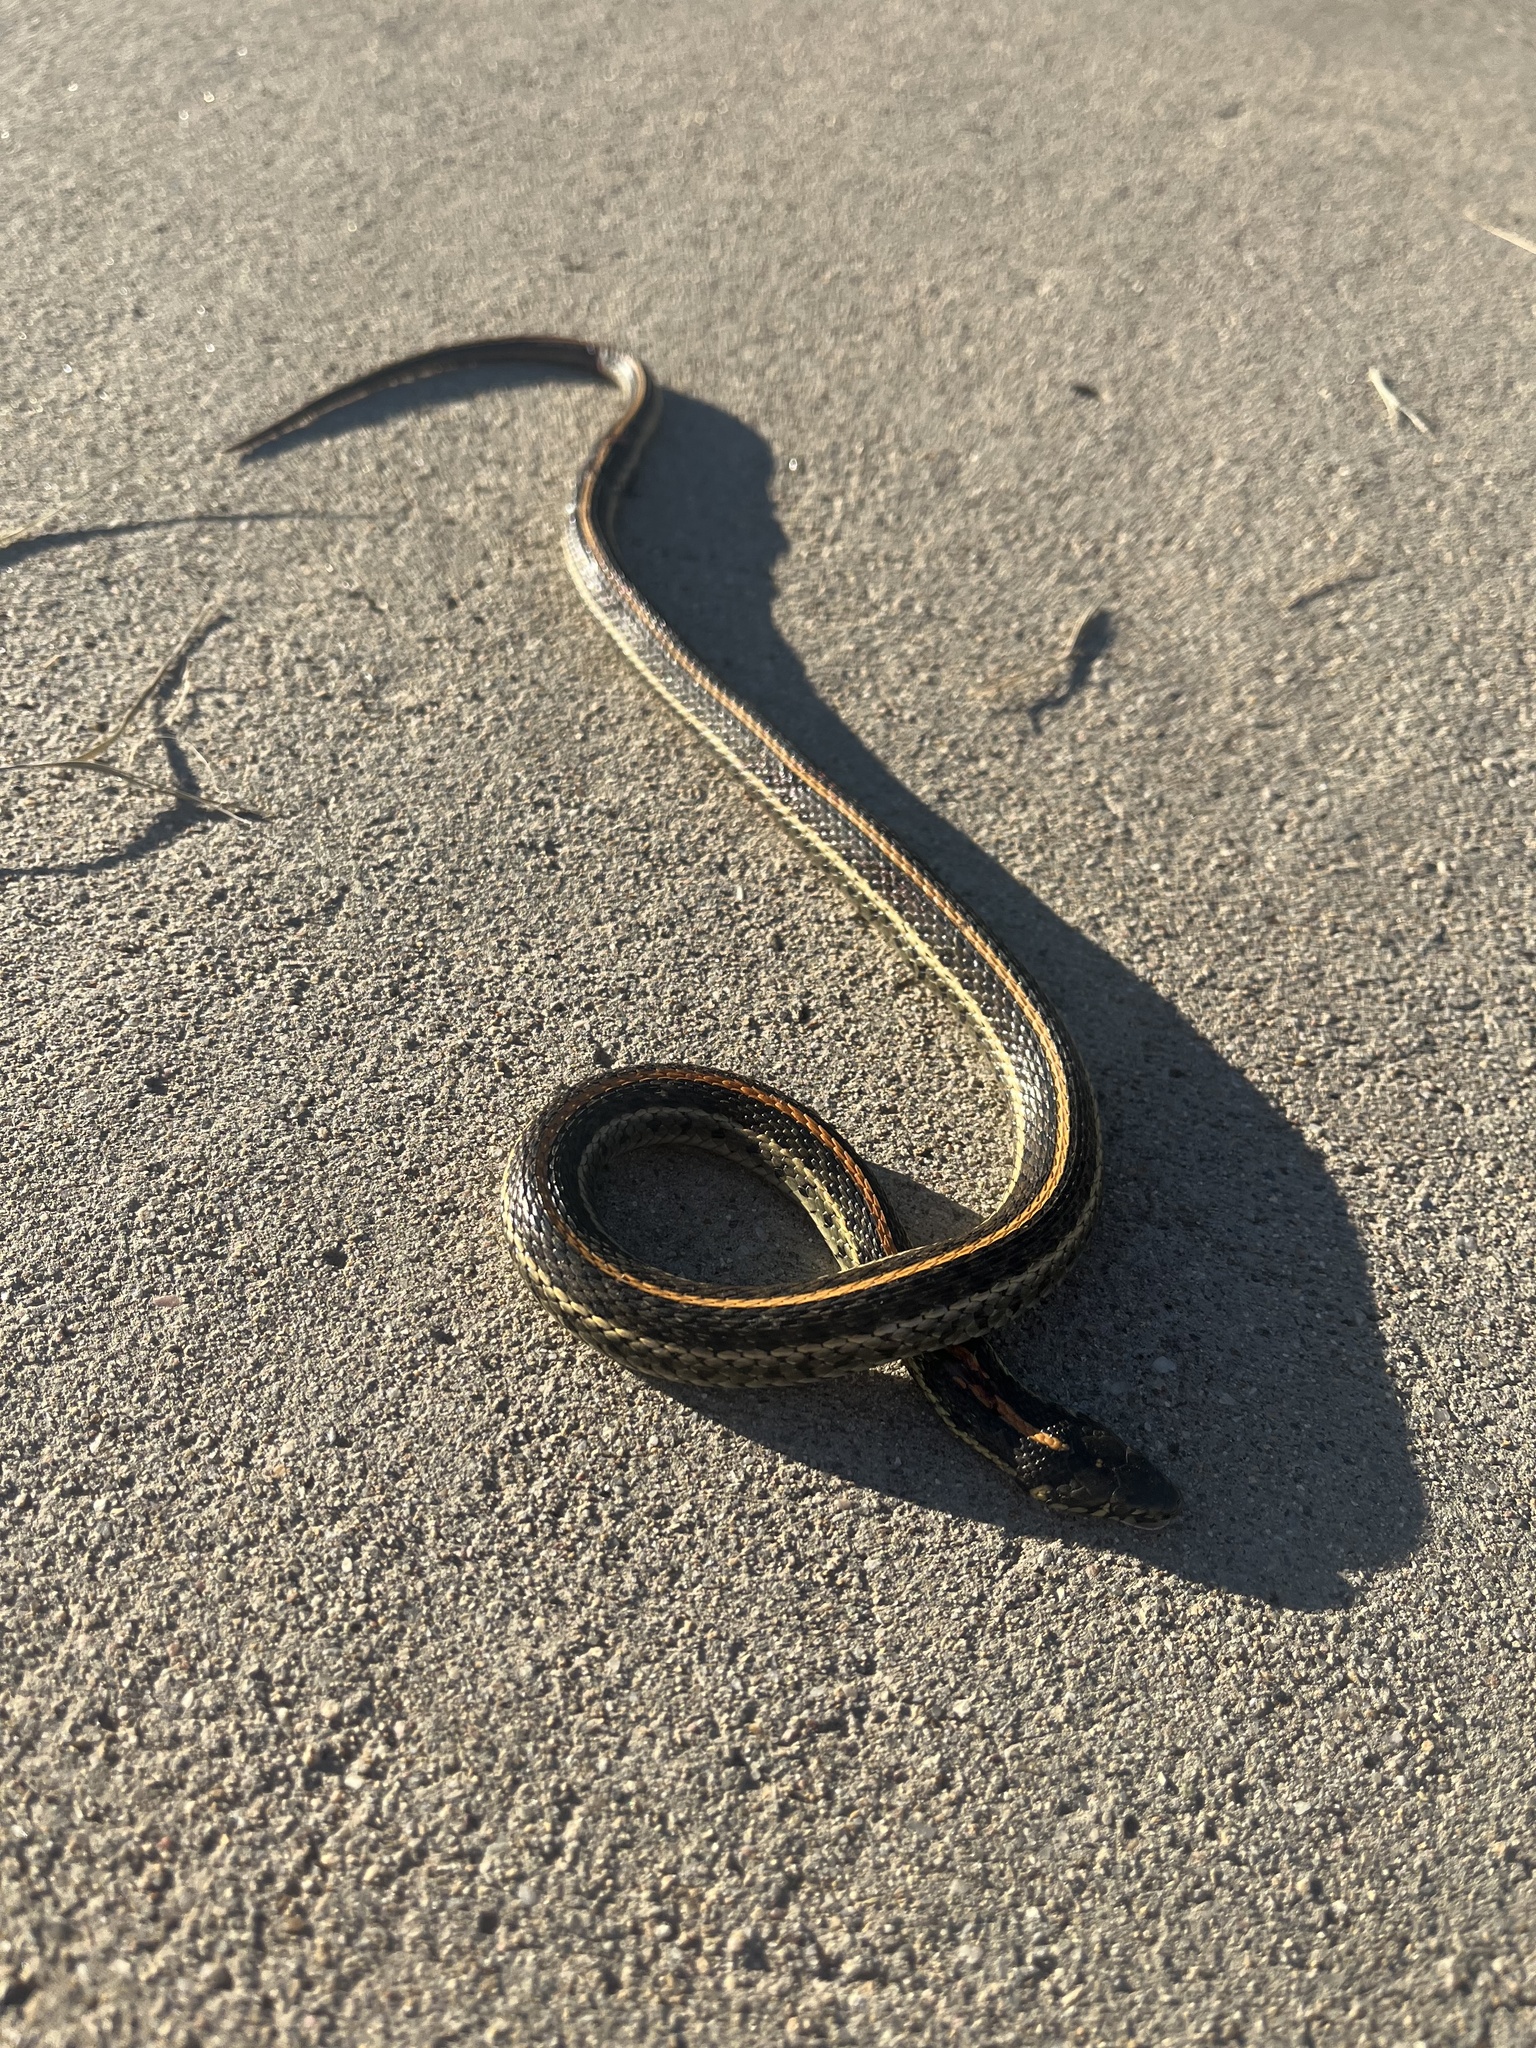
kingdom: Animalia
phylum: Chordata
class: Squamata
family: Colubridae
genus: Thamnophis
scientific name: Thamnophis radix
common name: Plains garter snake
